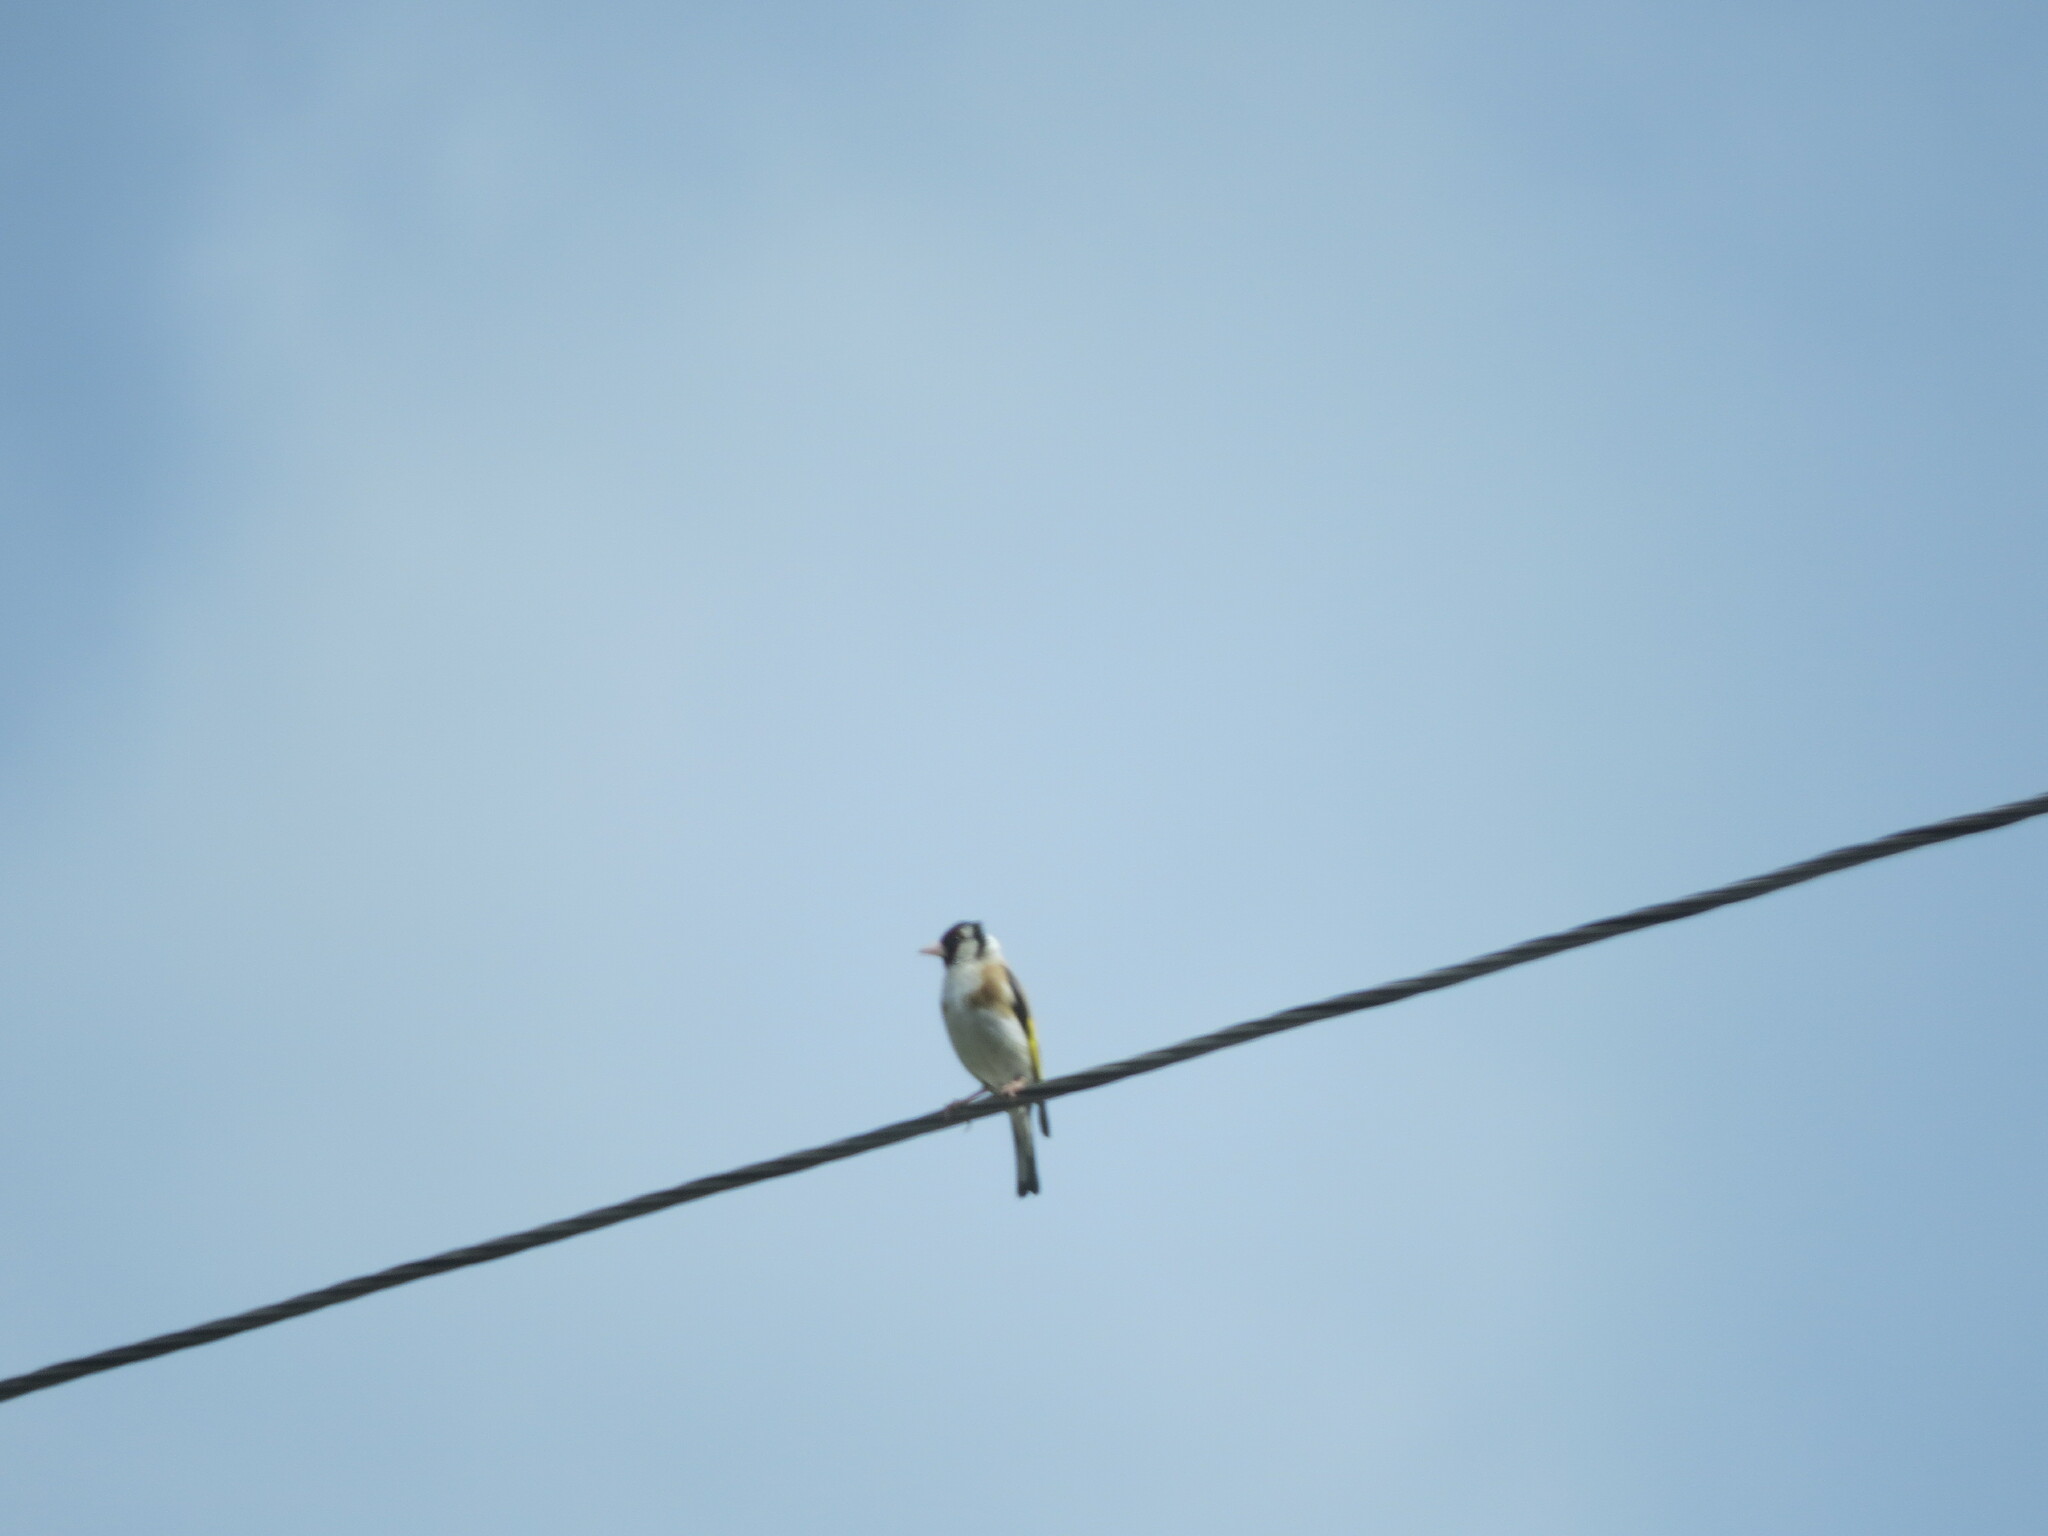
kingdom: Animalia
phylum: Chordata
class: Aves
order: Passeriformes
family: Fringillidae
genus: Carduelis
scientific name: Carduelis carduelis
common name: European goldfinch
